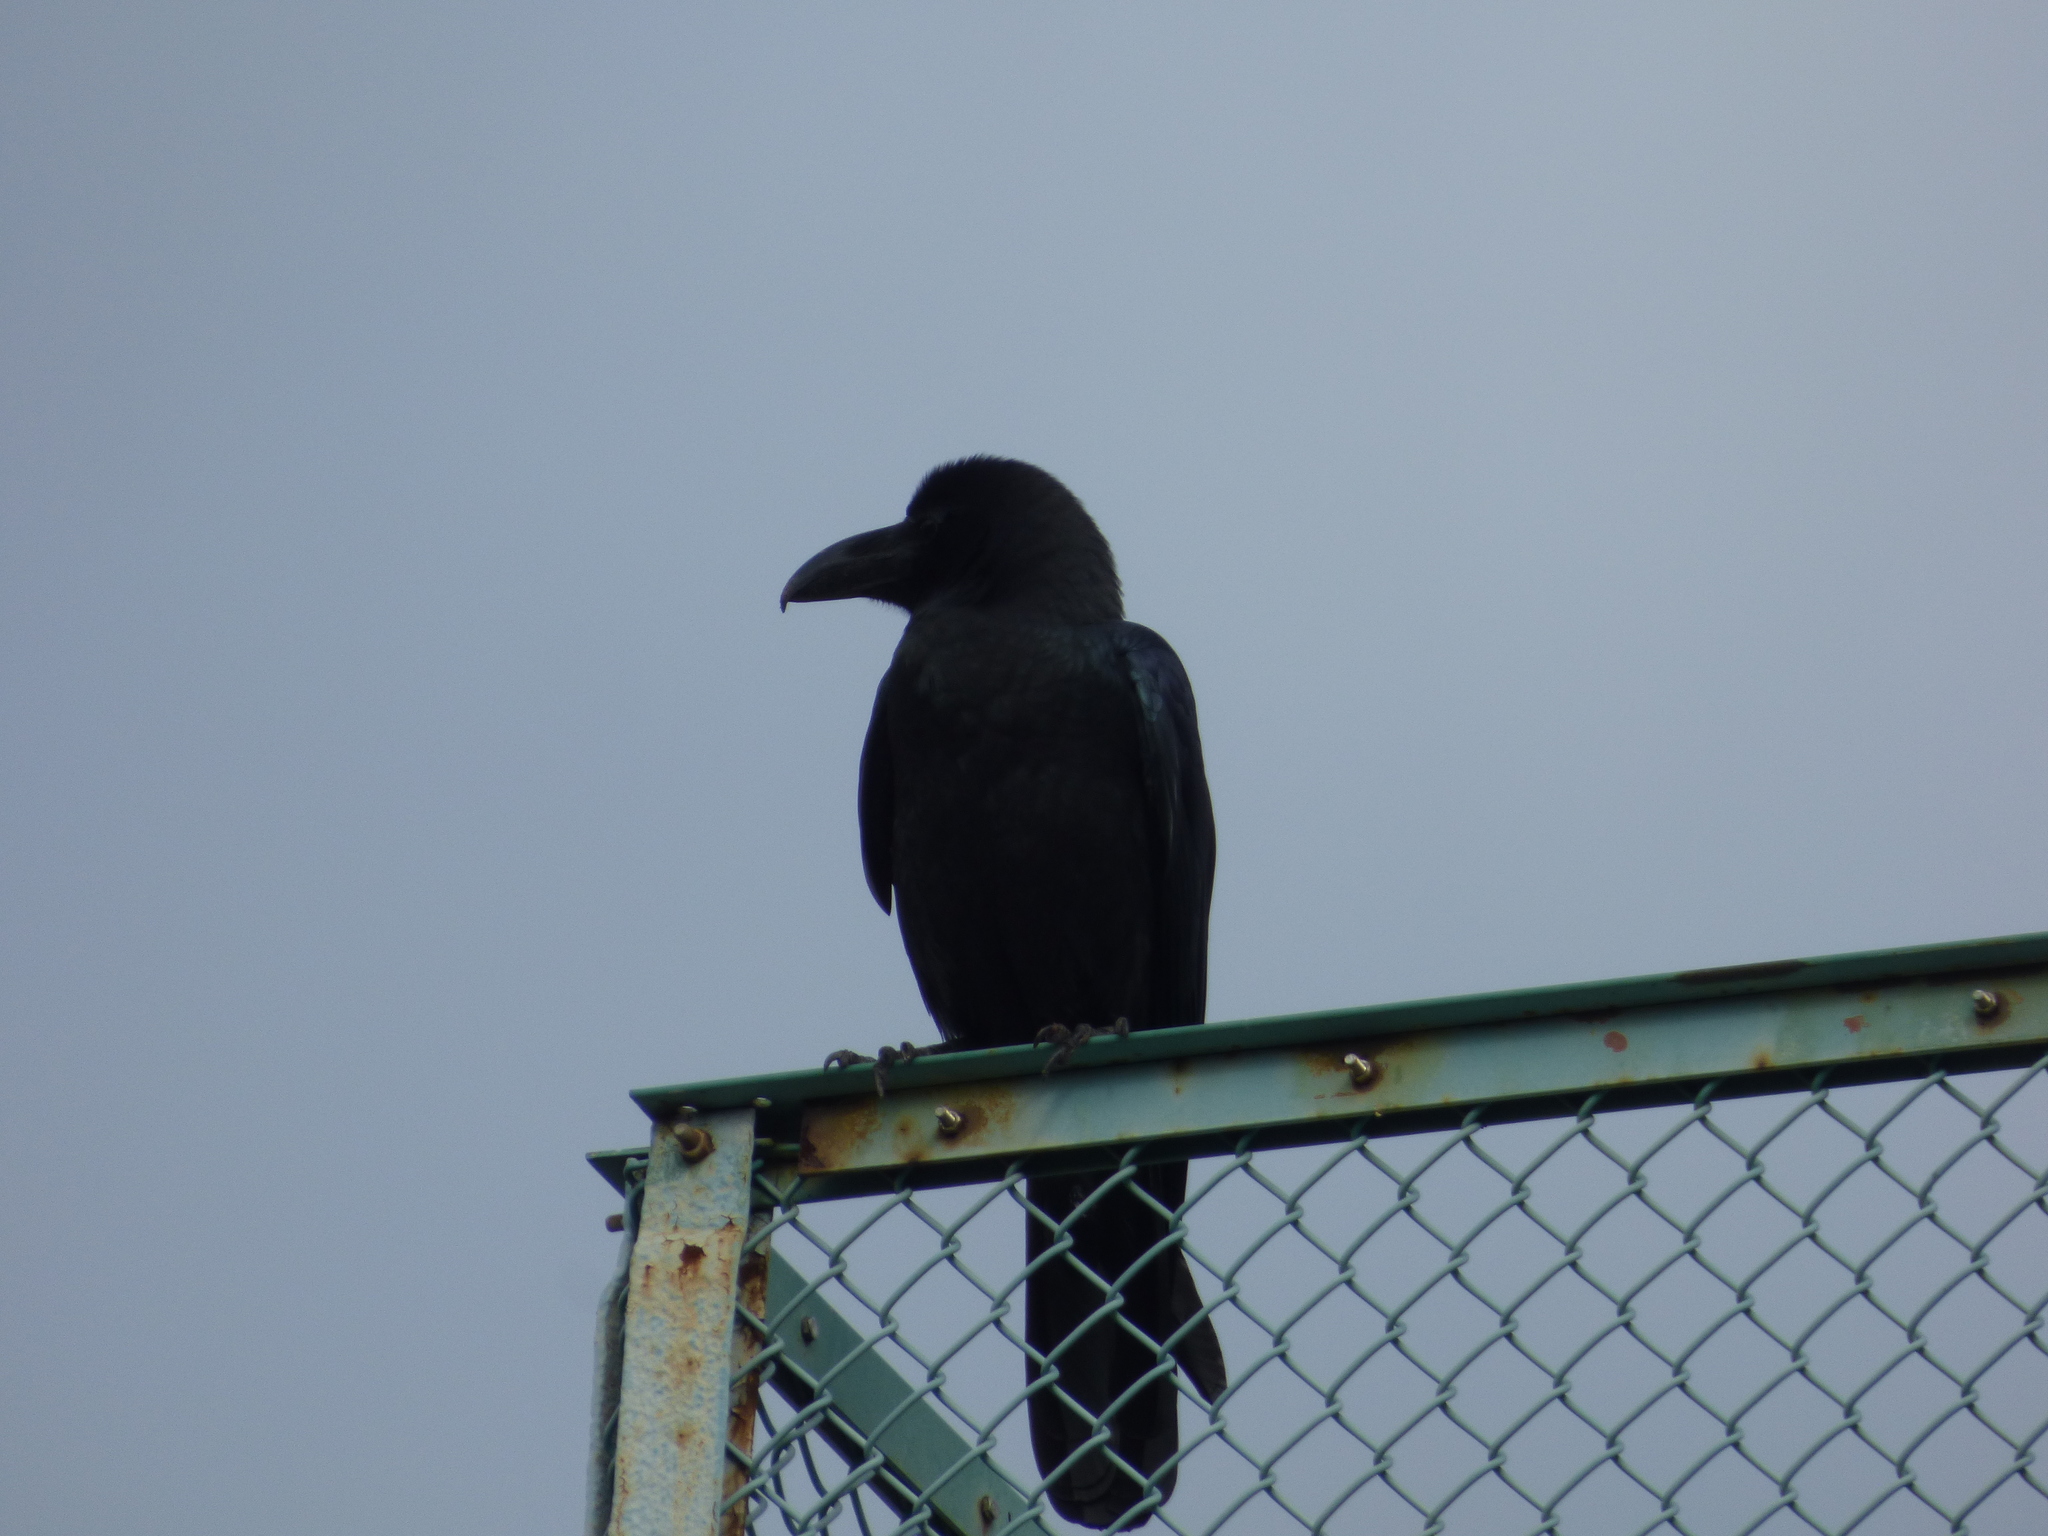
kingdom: Animalia
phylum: Chordata
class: Aves
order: Passeriformes
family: Corvidae
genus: Corvus
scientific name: Corvus macrorhynchos
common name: Large-billed crow
